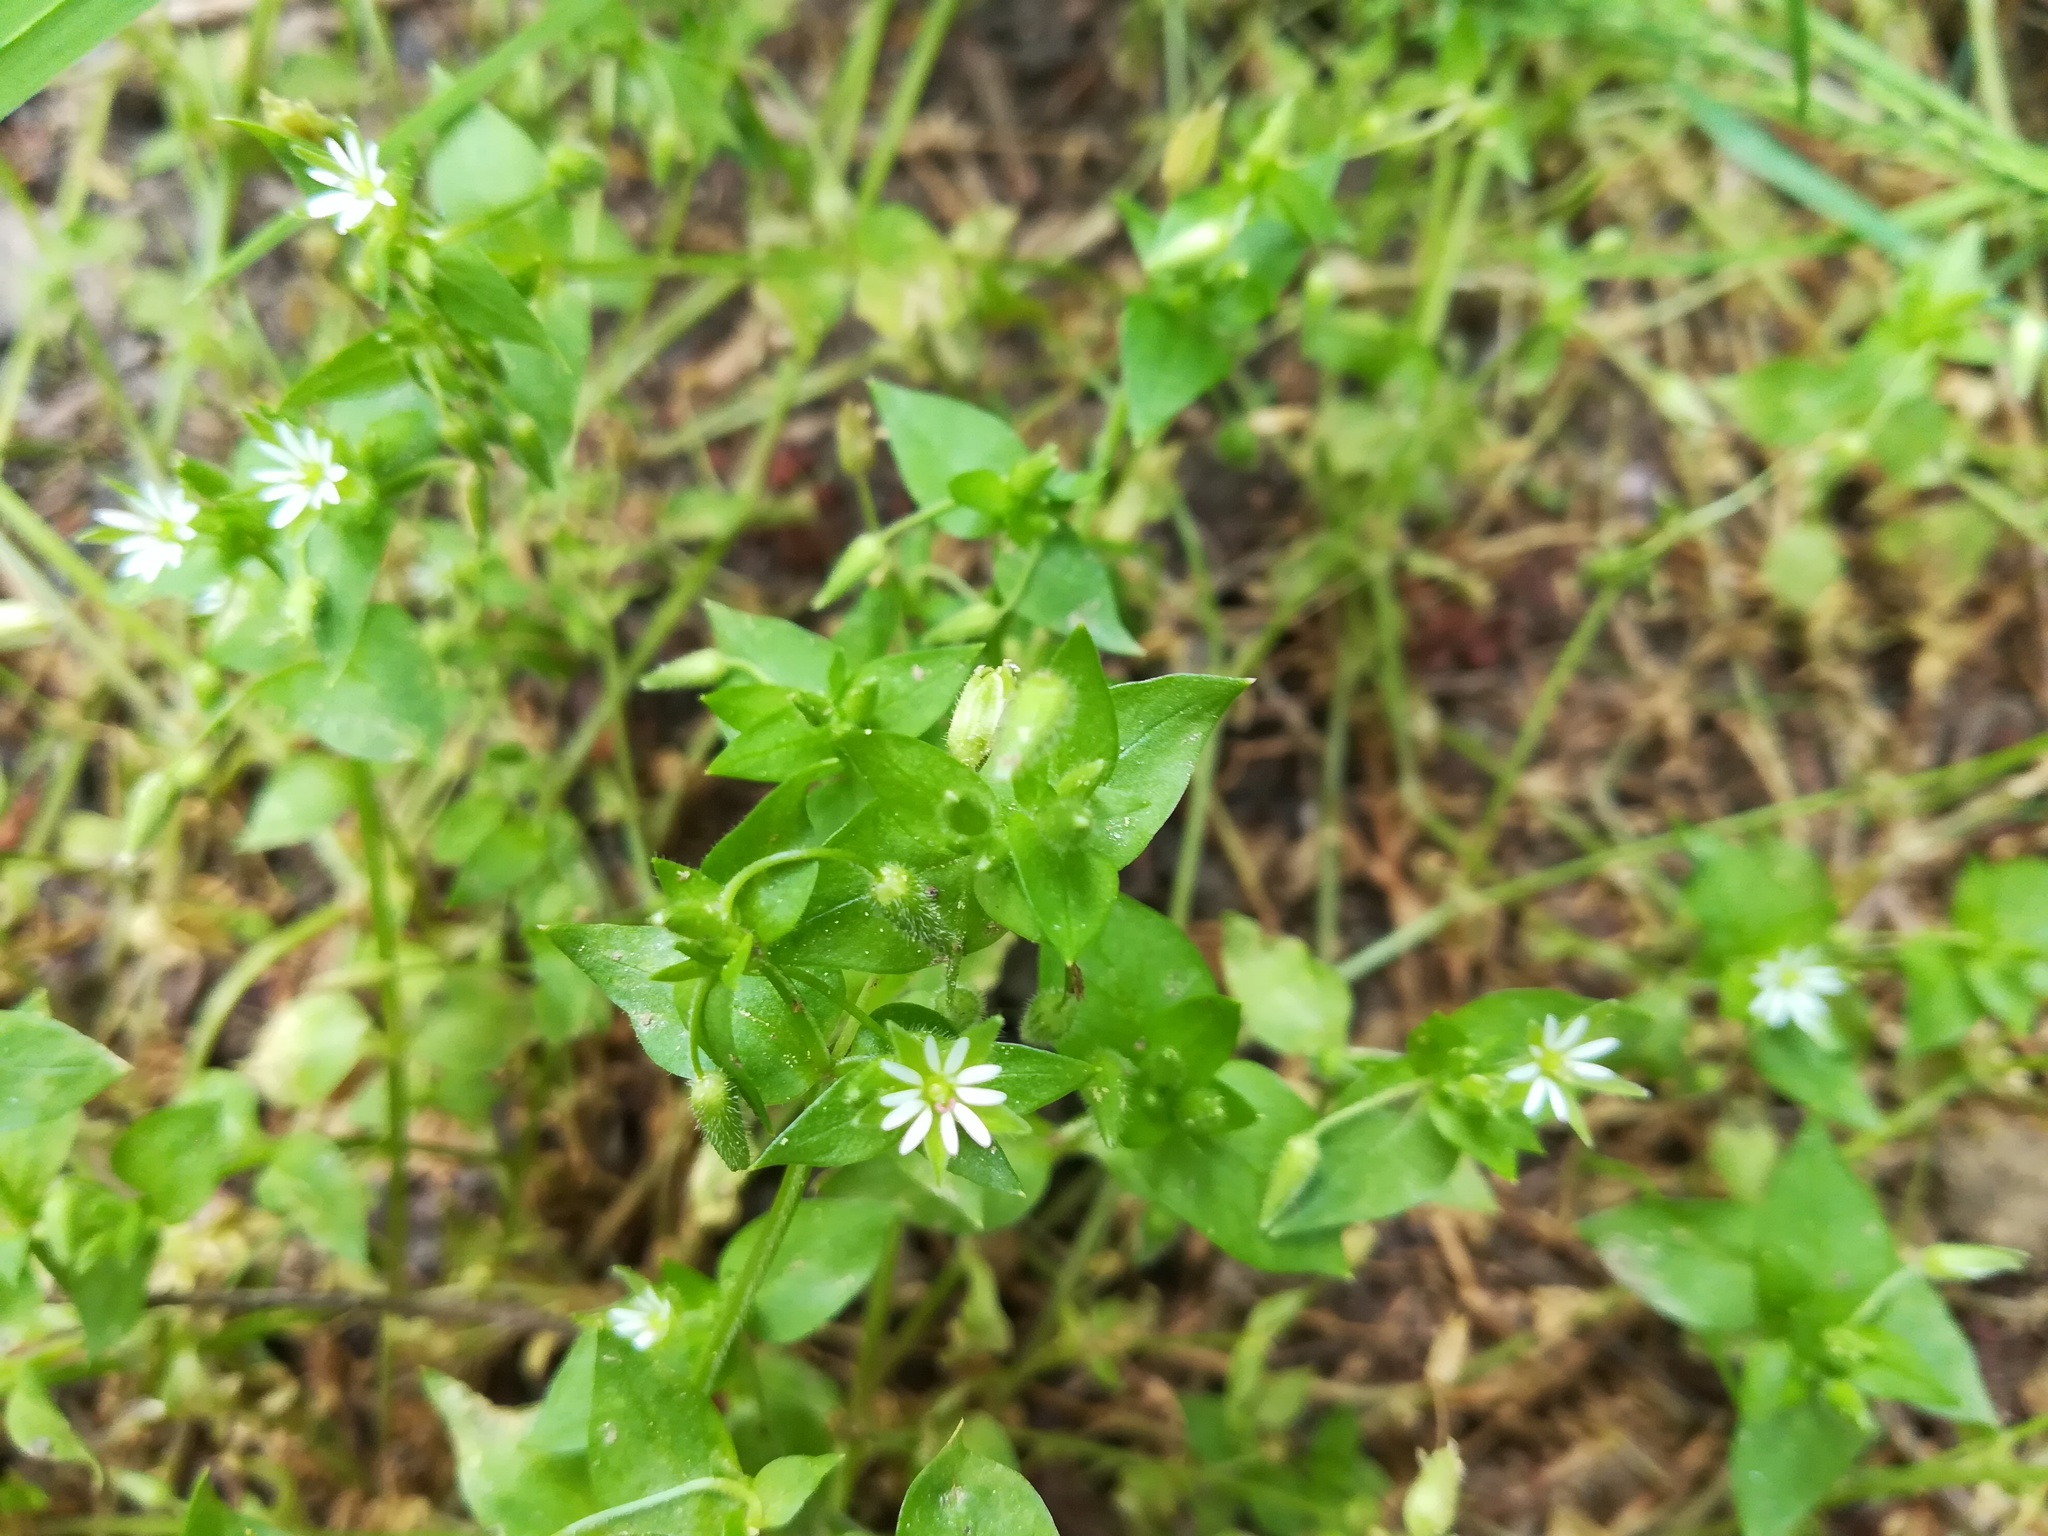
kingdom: Plantae
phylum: Tracheophyta
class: Magnoliopsida
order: Caryophyllales
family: Caryophyllaceae
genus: Stellaria
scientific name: Stellaria media
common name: Common chickweed
